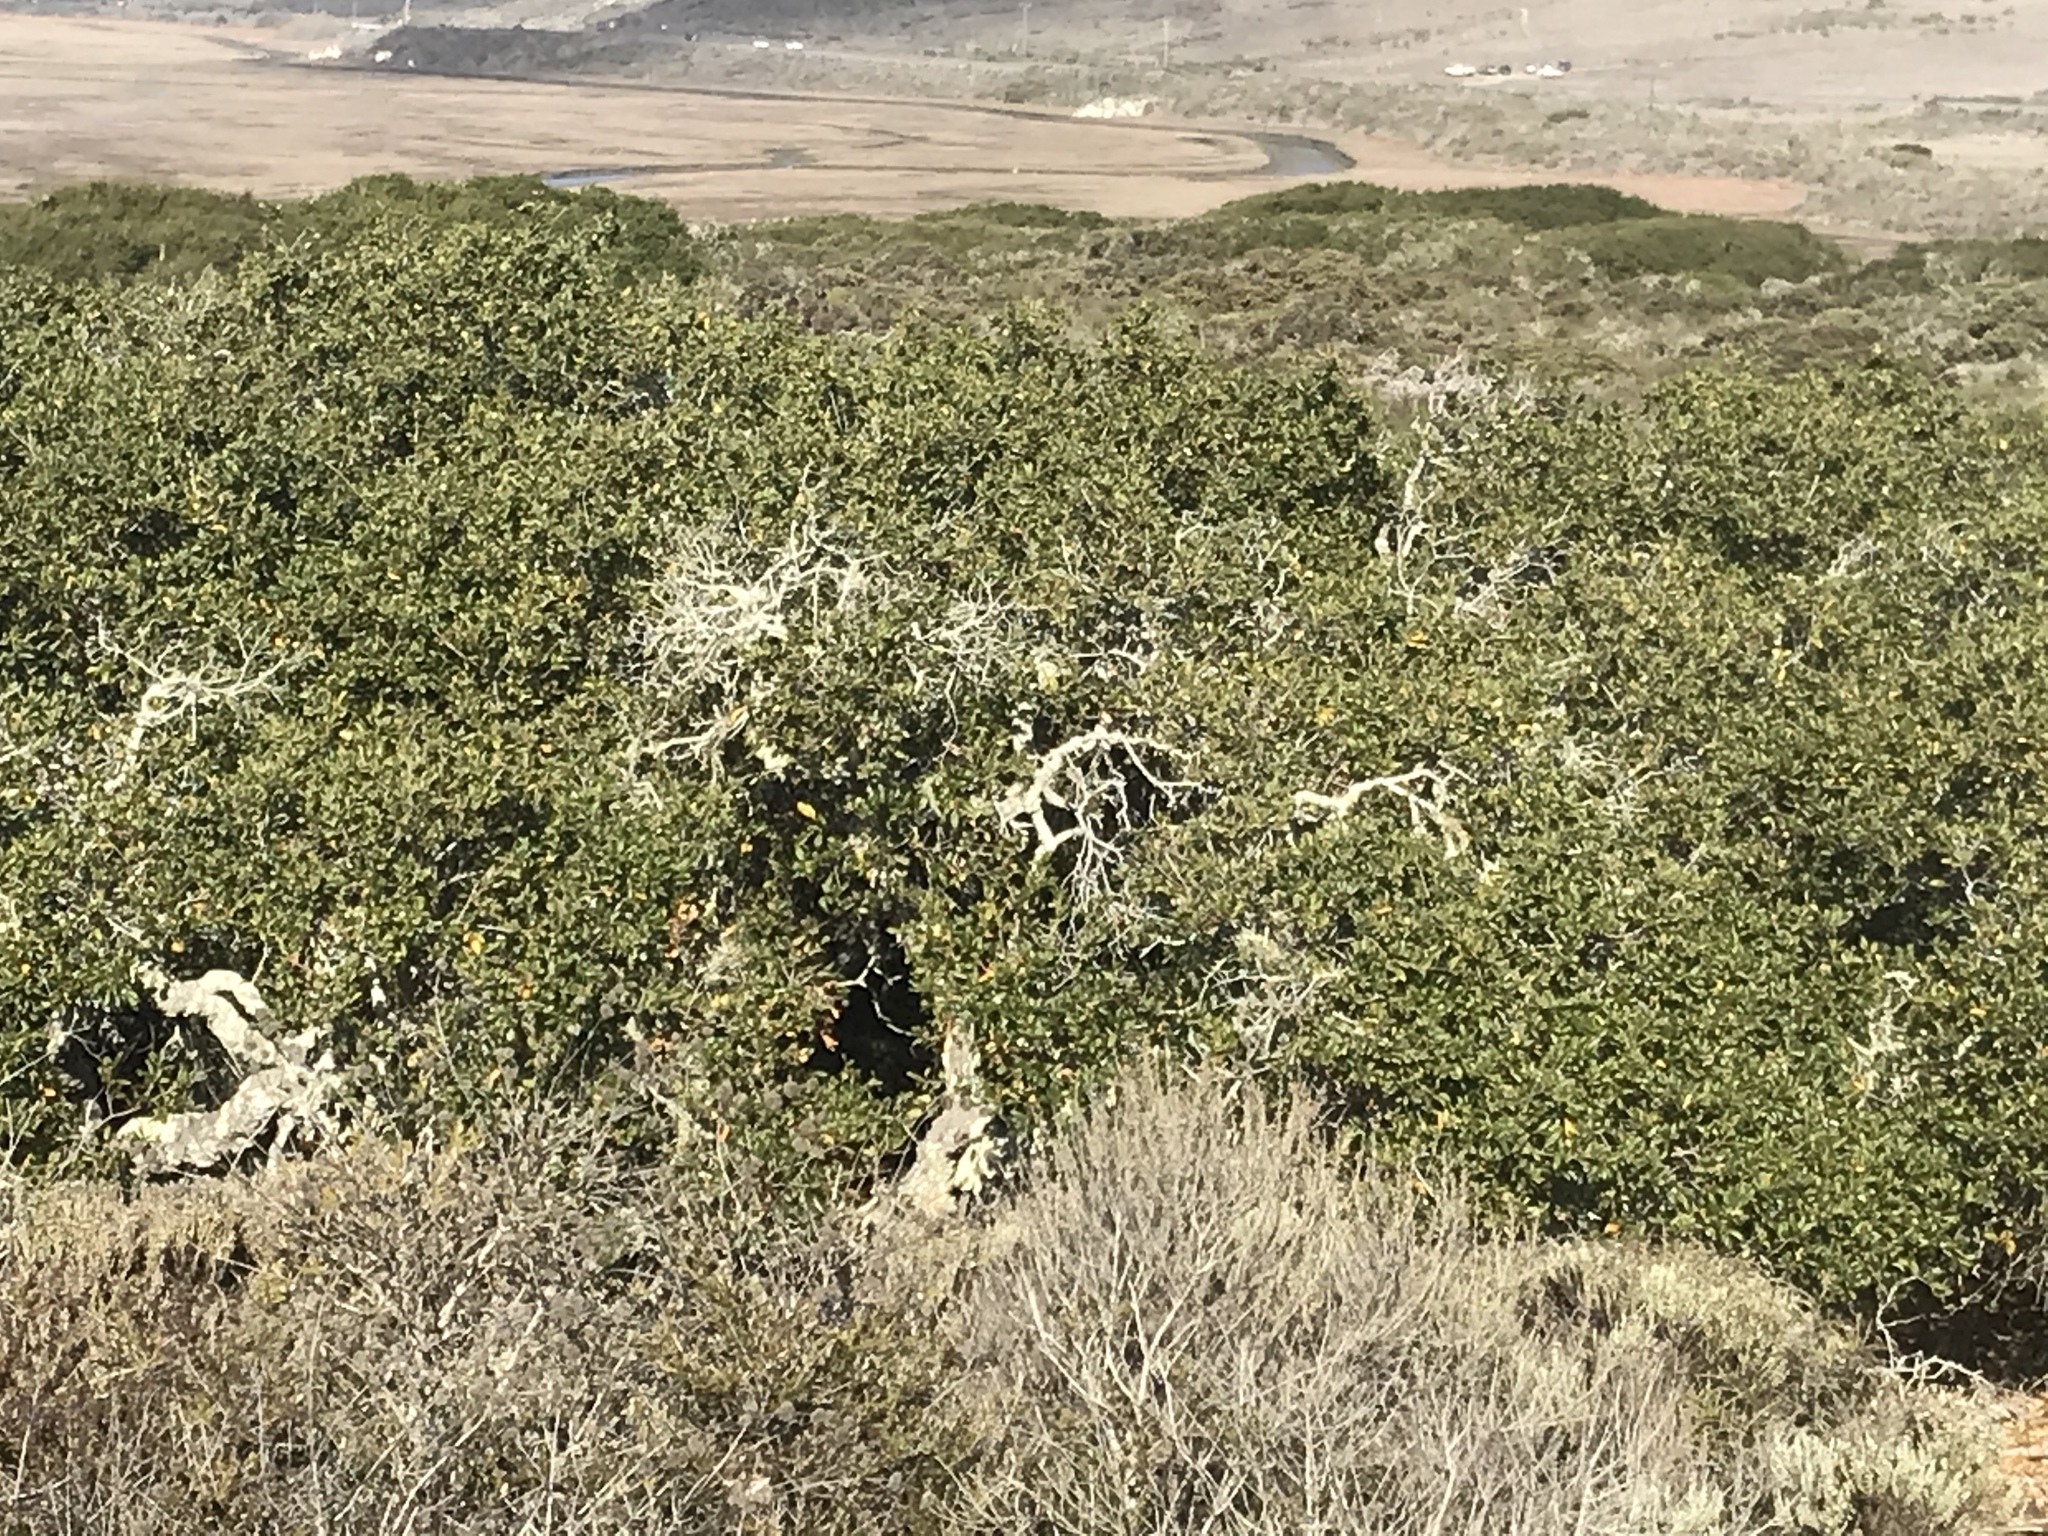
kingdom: Plantae
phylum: Tracheophyta
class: Magnoliopsida
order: Fagales
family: Fagaceae
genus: Quercus
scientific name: Quercus agrifolia
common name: California live oak
